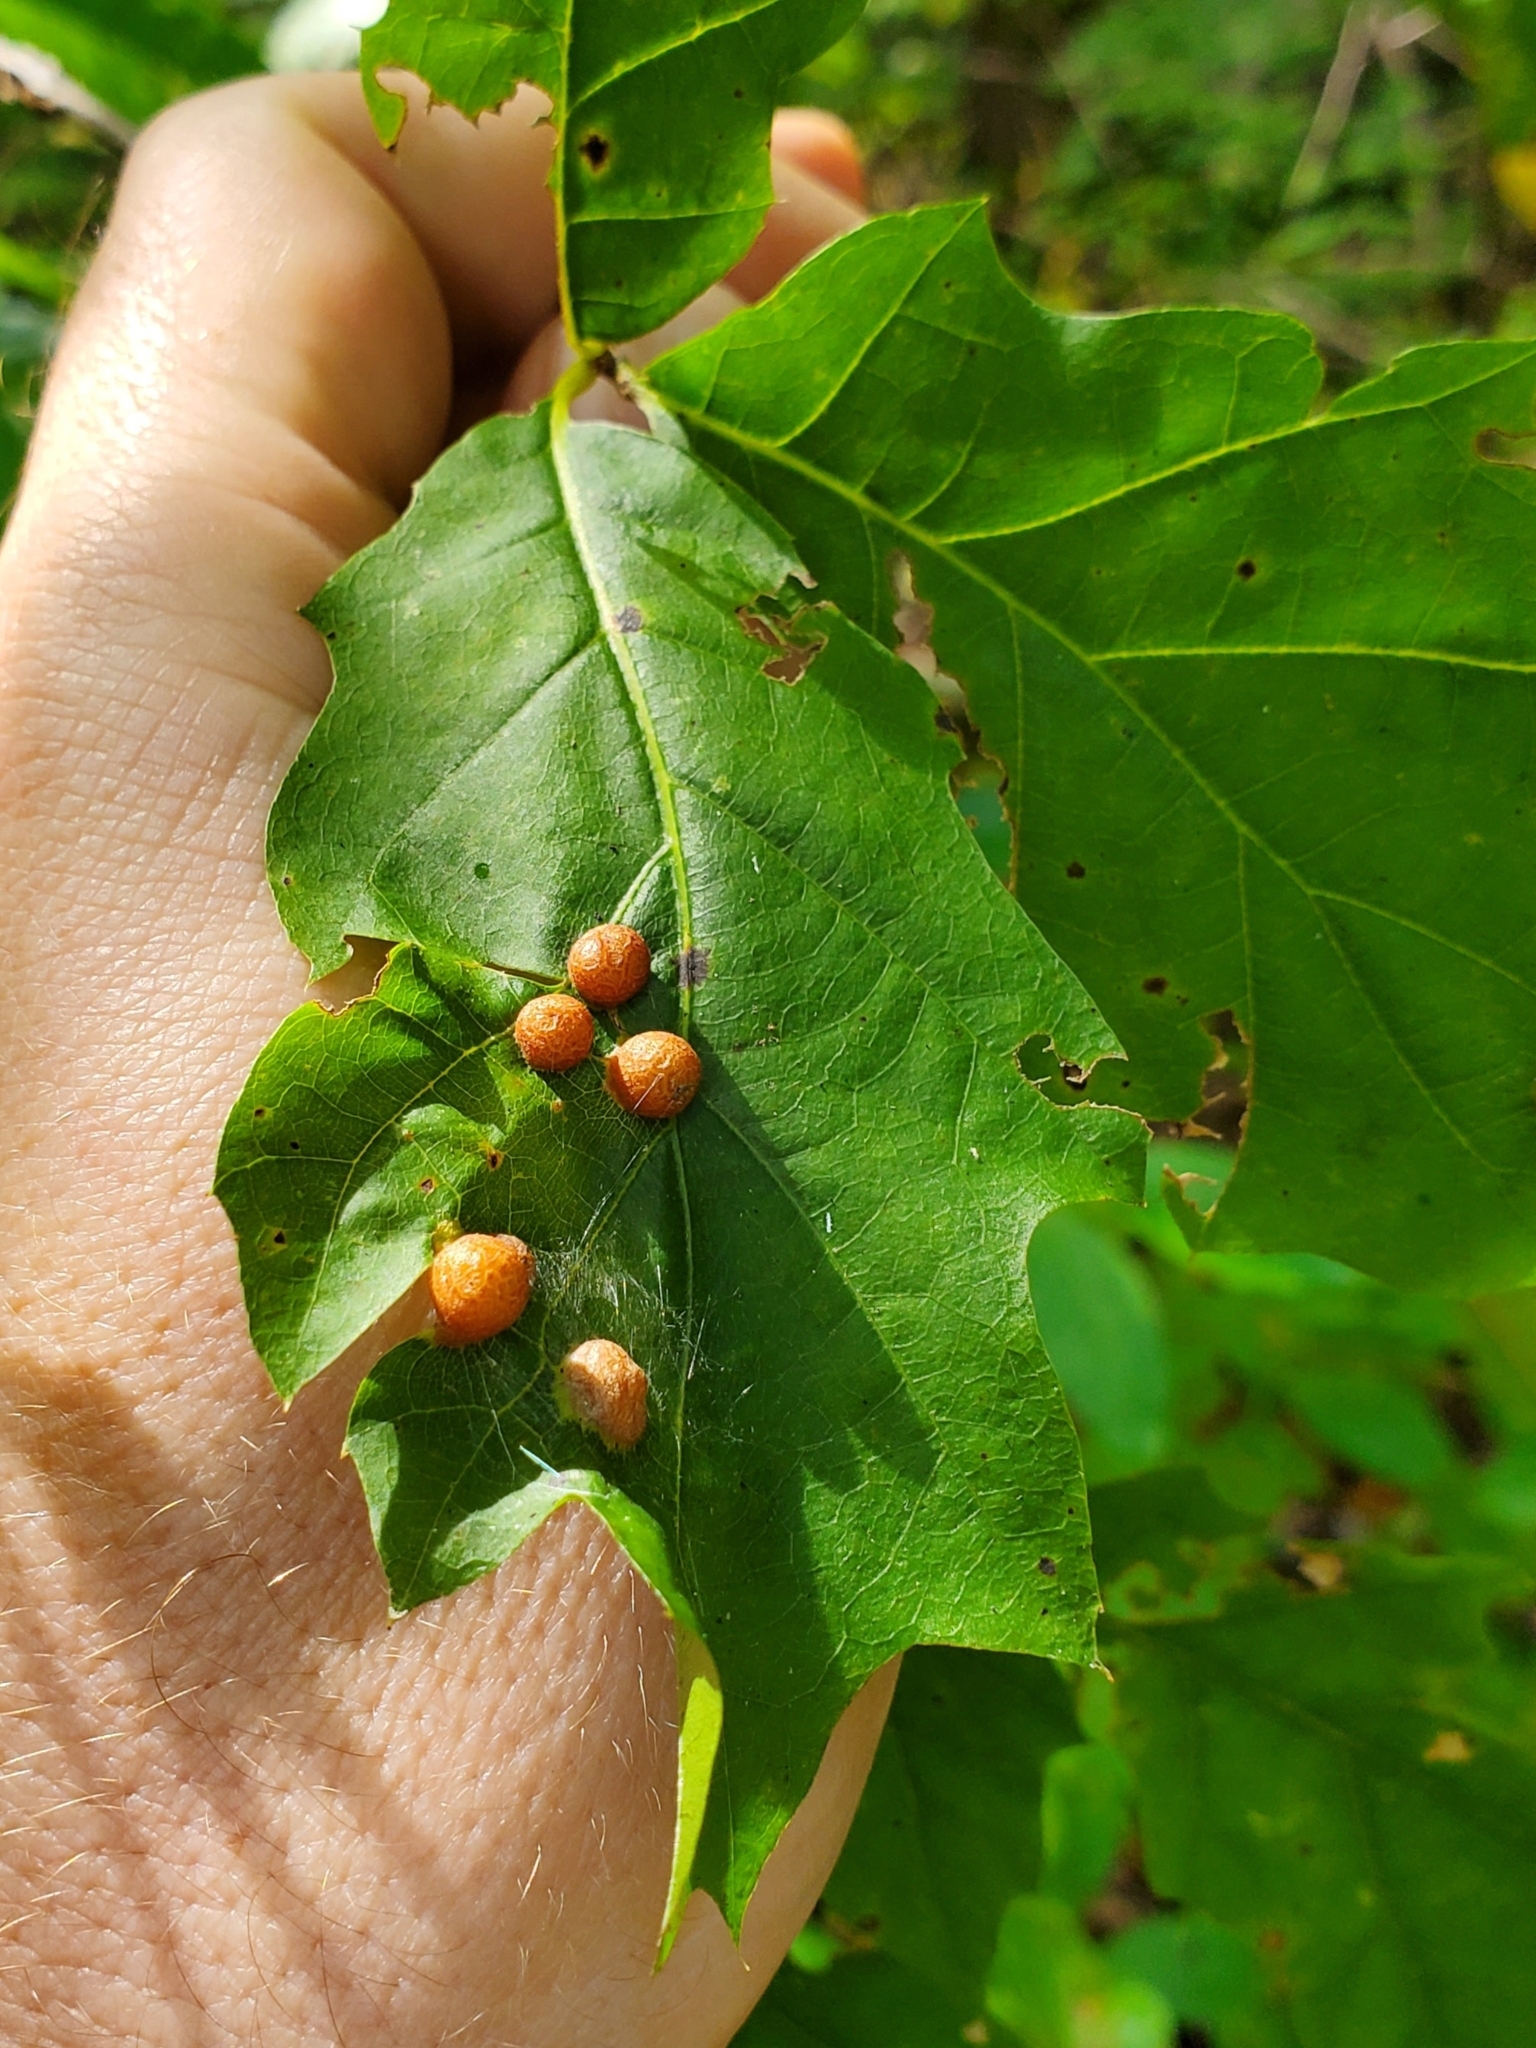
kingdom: Animalia
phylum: Arthropoda
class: Insecta
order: Diptera
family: Cecidomyiidae
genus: Polystepha
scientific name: Polystepha pilulae
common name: Oak leaf gall midge
